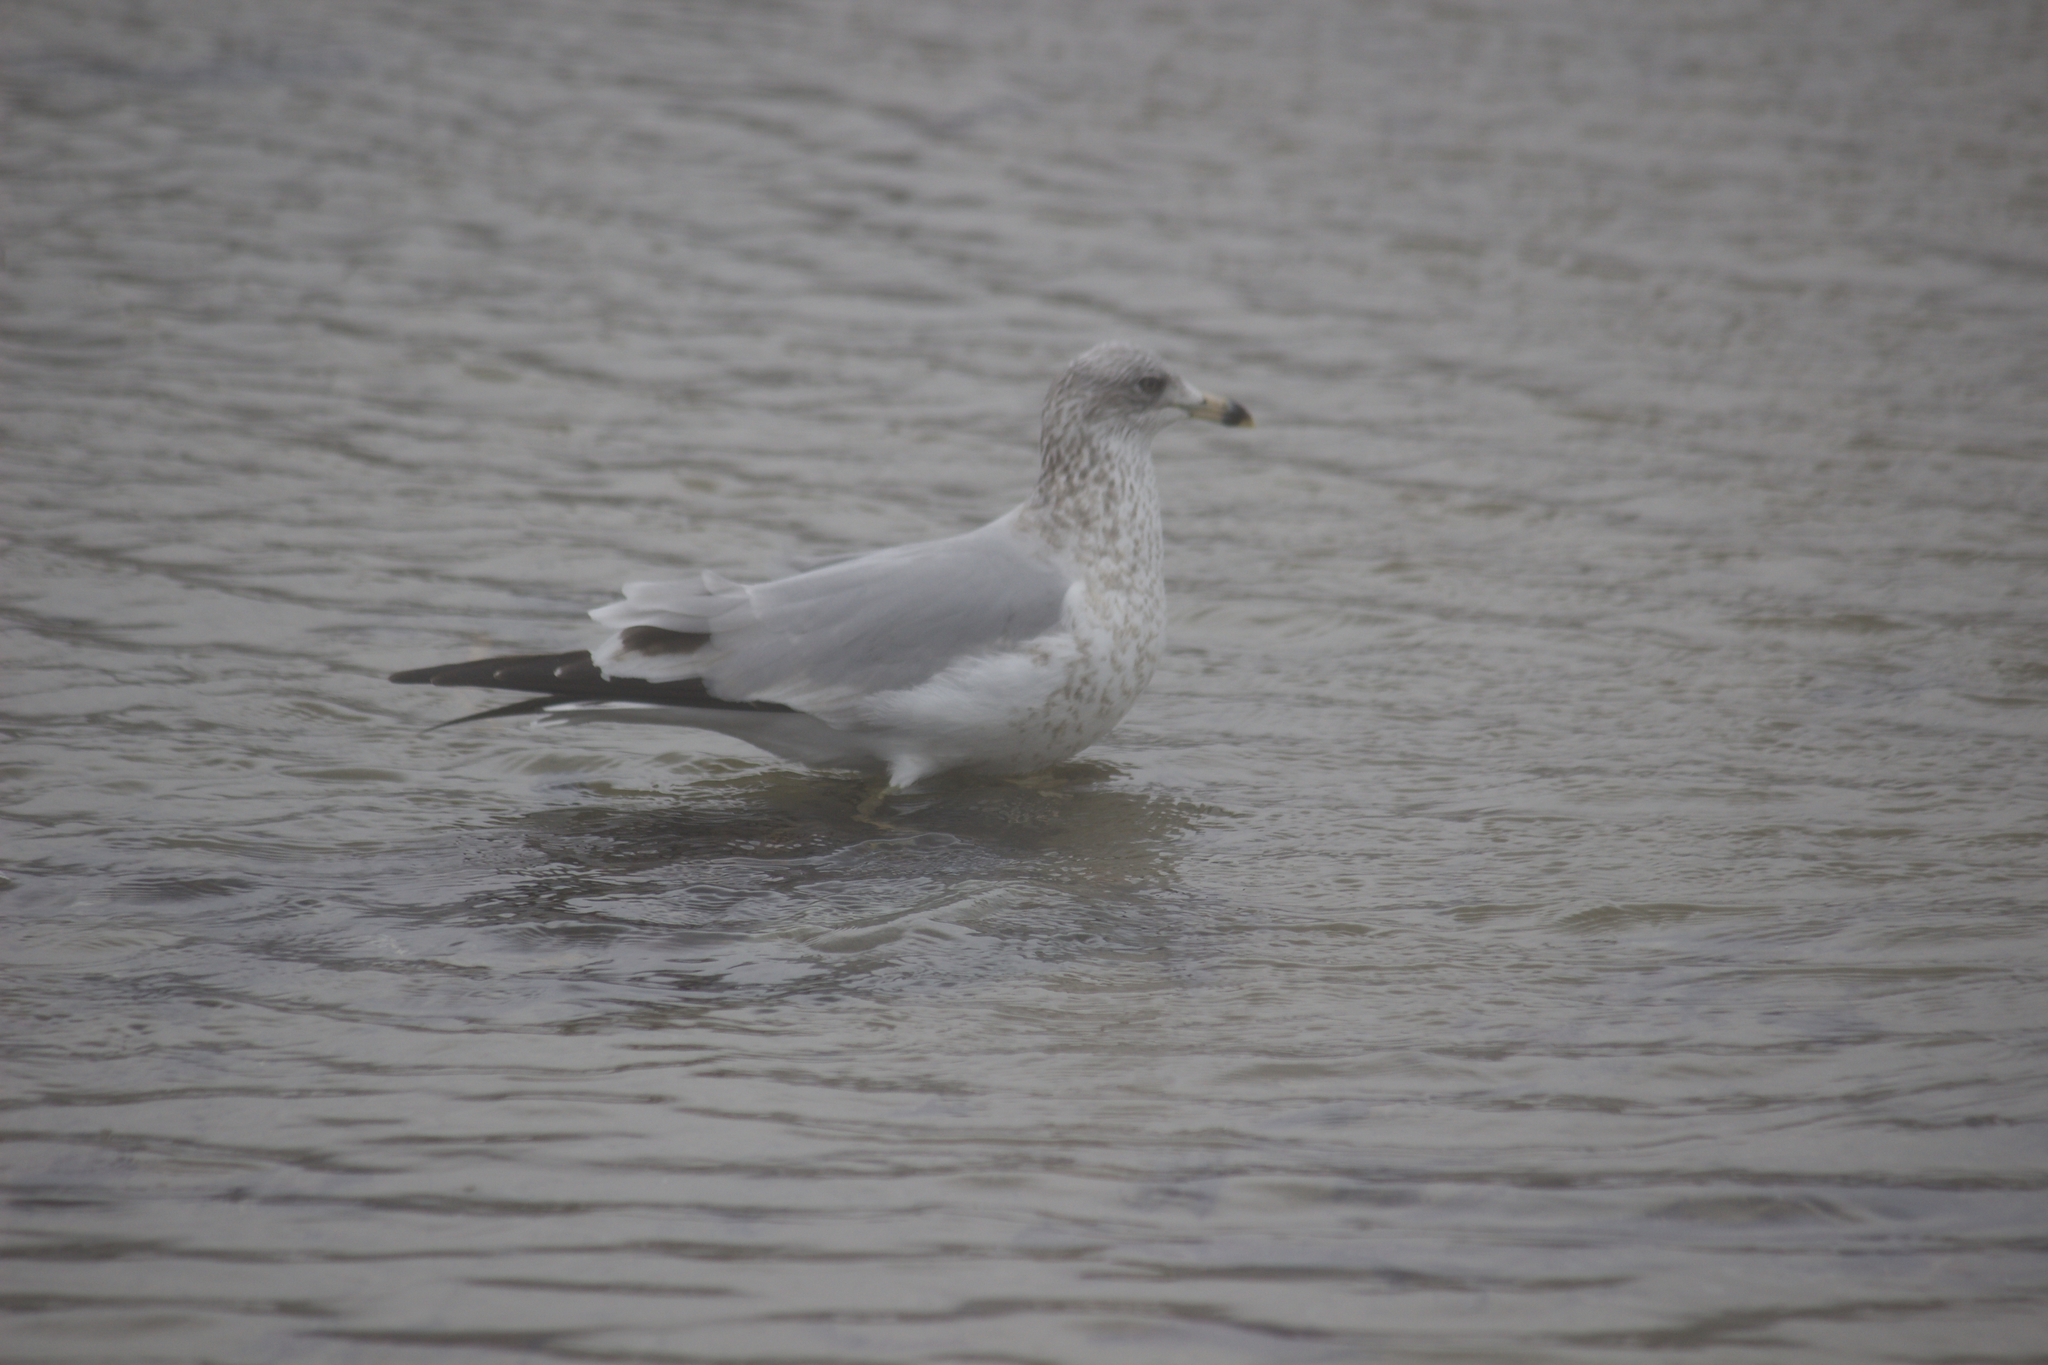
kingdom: Animalia
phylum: Chordata
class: Aves
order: Charadriiformes
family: Laridae
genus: Larus
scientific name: Larus delawarensis
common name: Ring-billed gull
